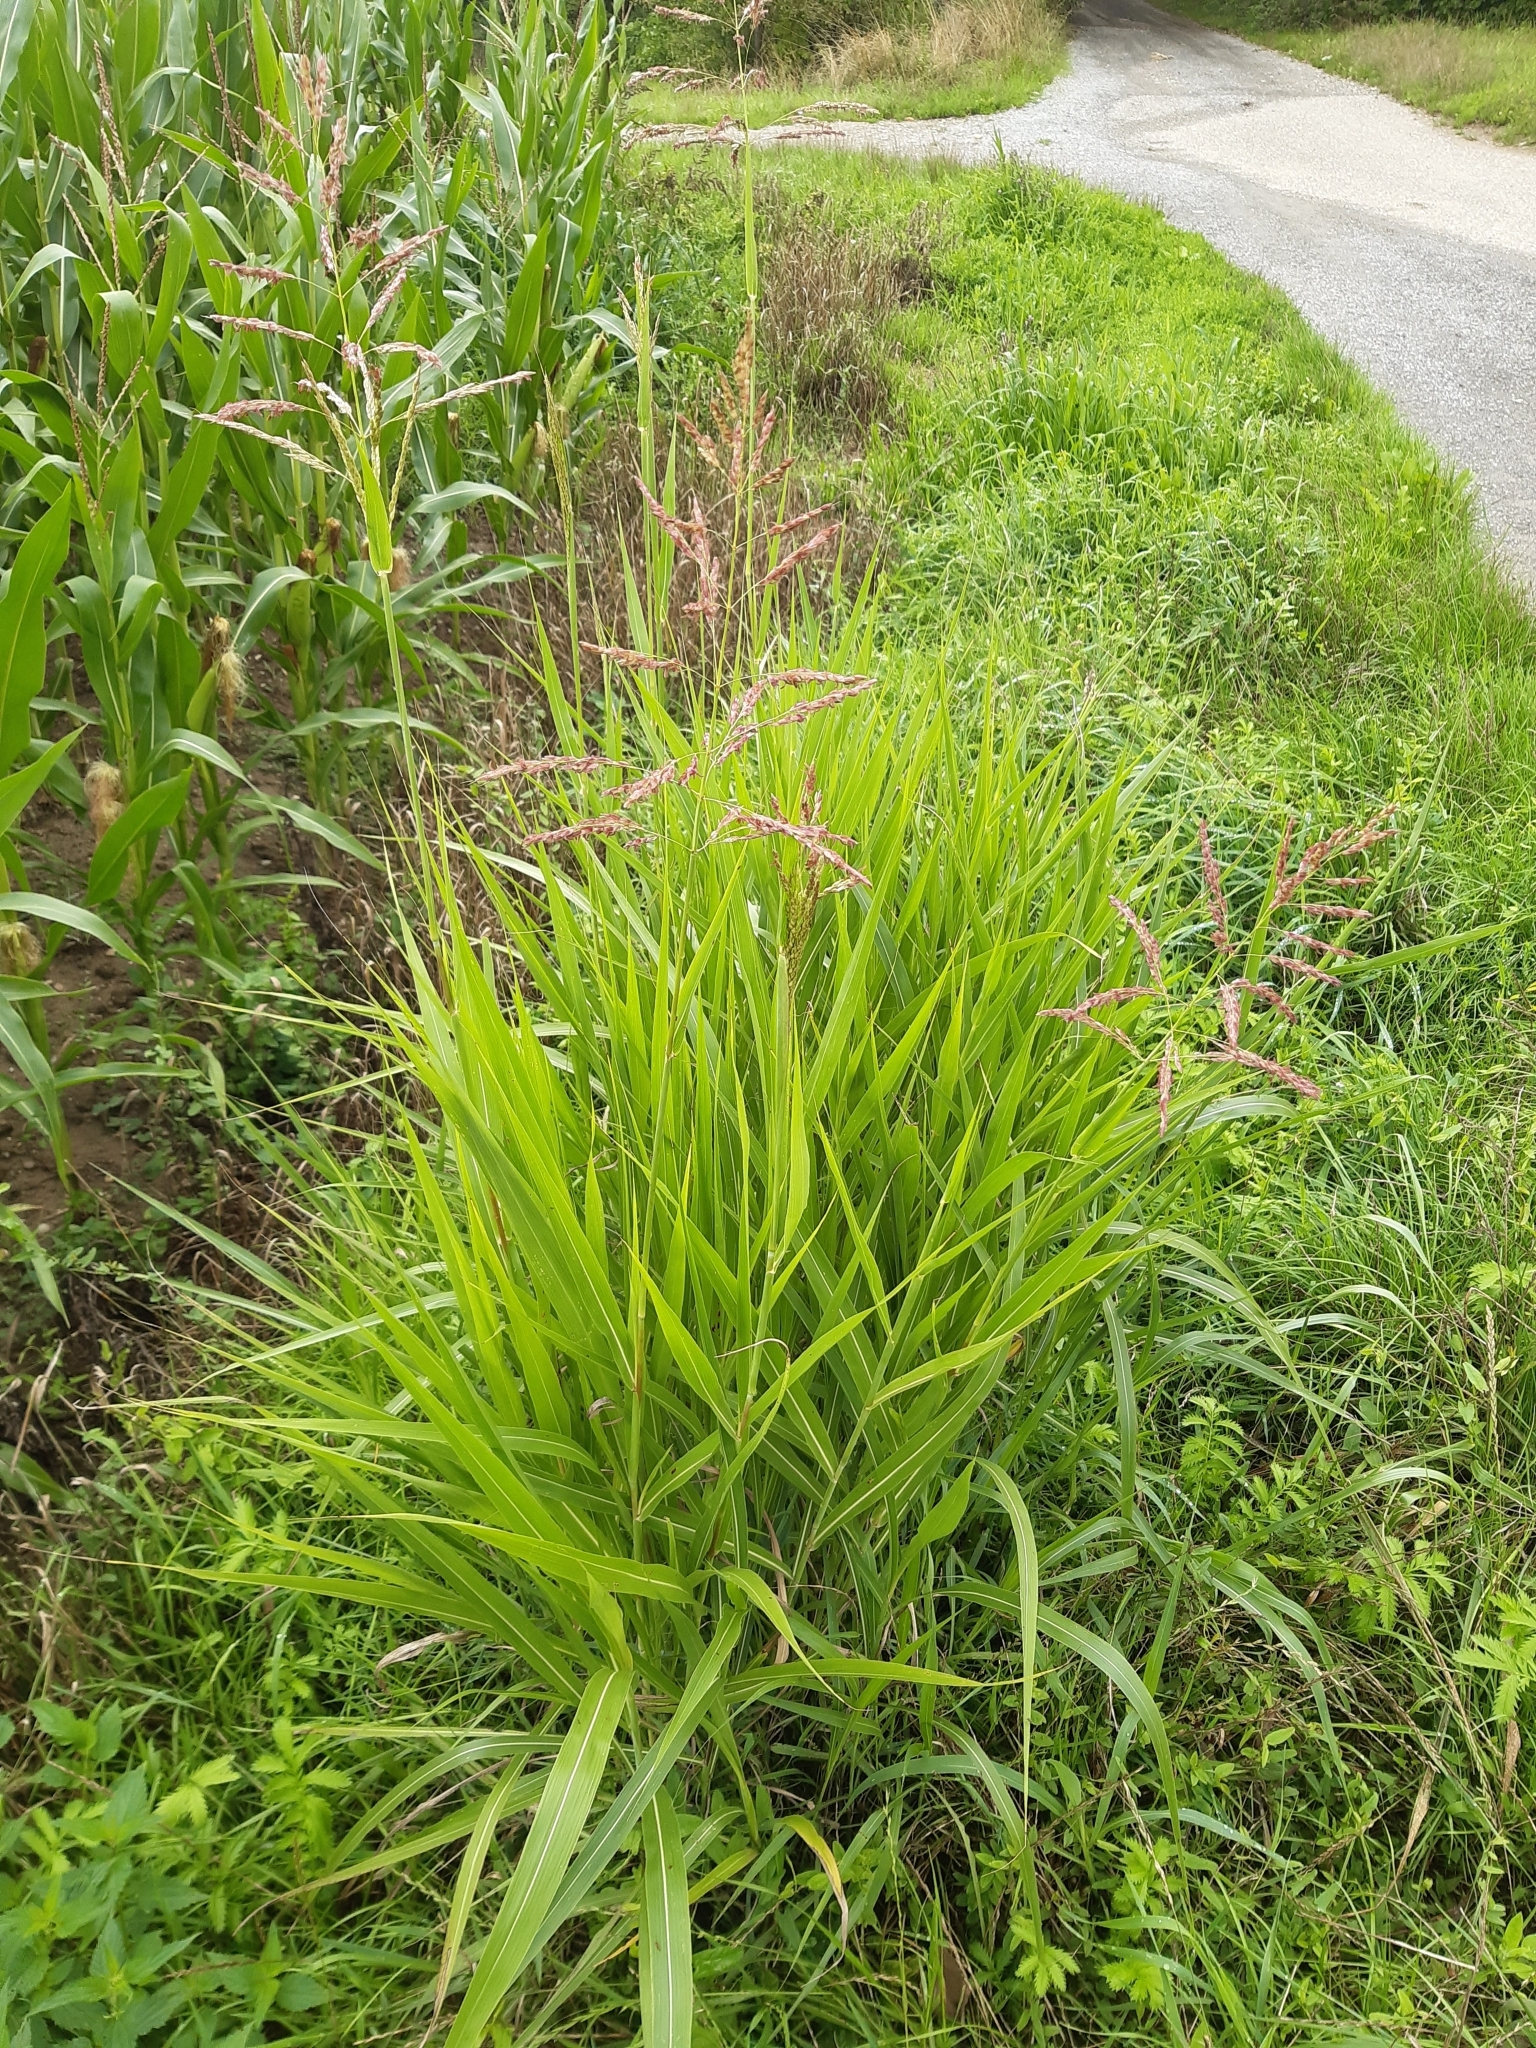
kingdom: Plantae
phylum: Tracheophyta
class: Liliopsida
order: Poales
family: Poaceae
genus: Sorghum
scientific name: Sorghum halepense
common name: Johnson-grass
